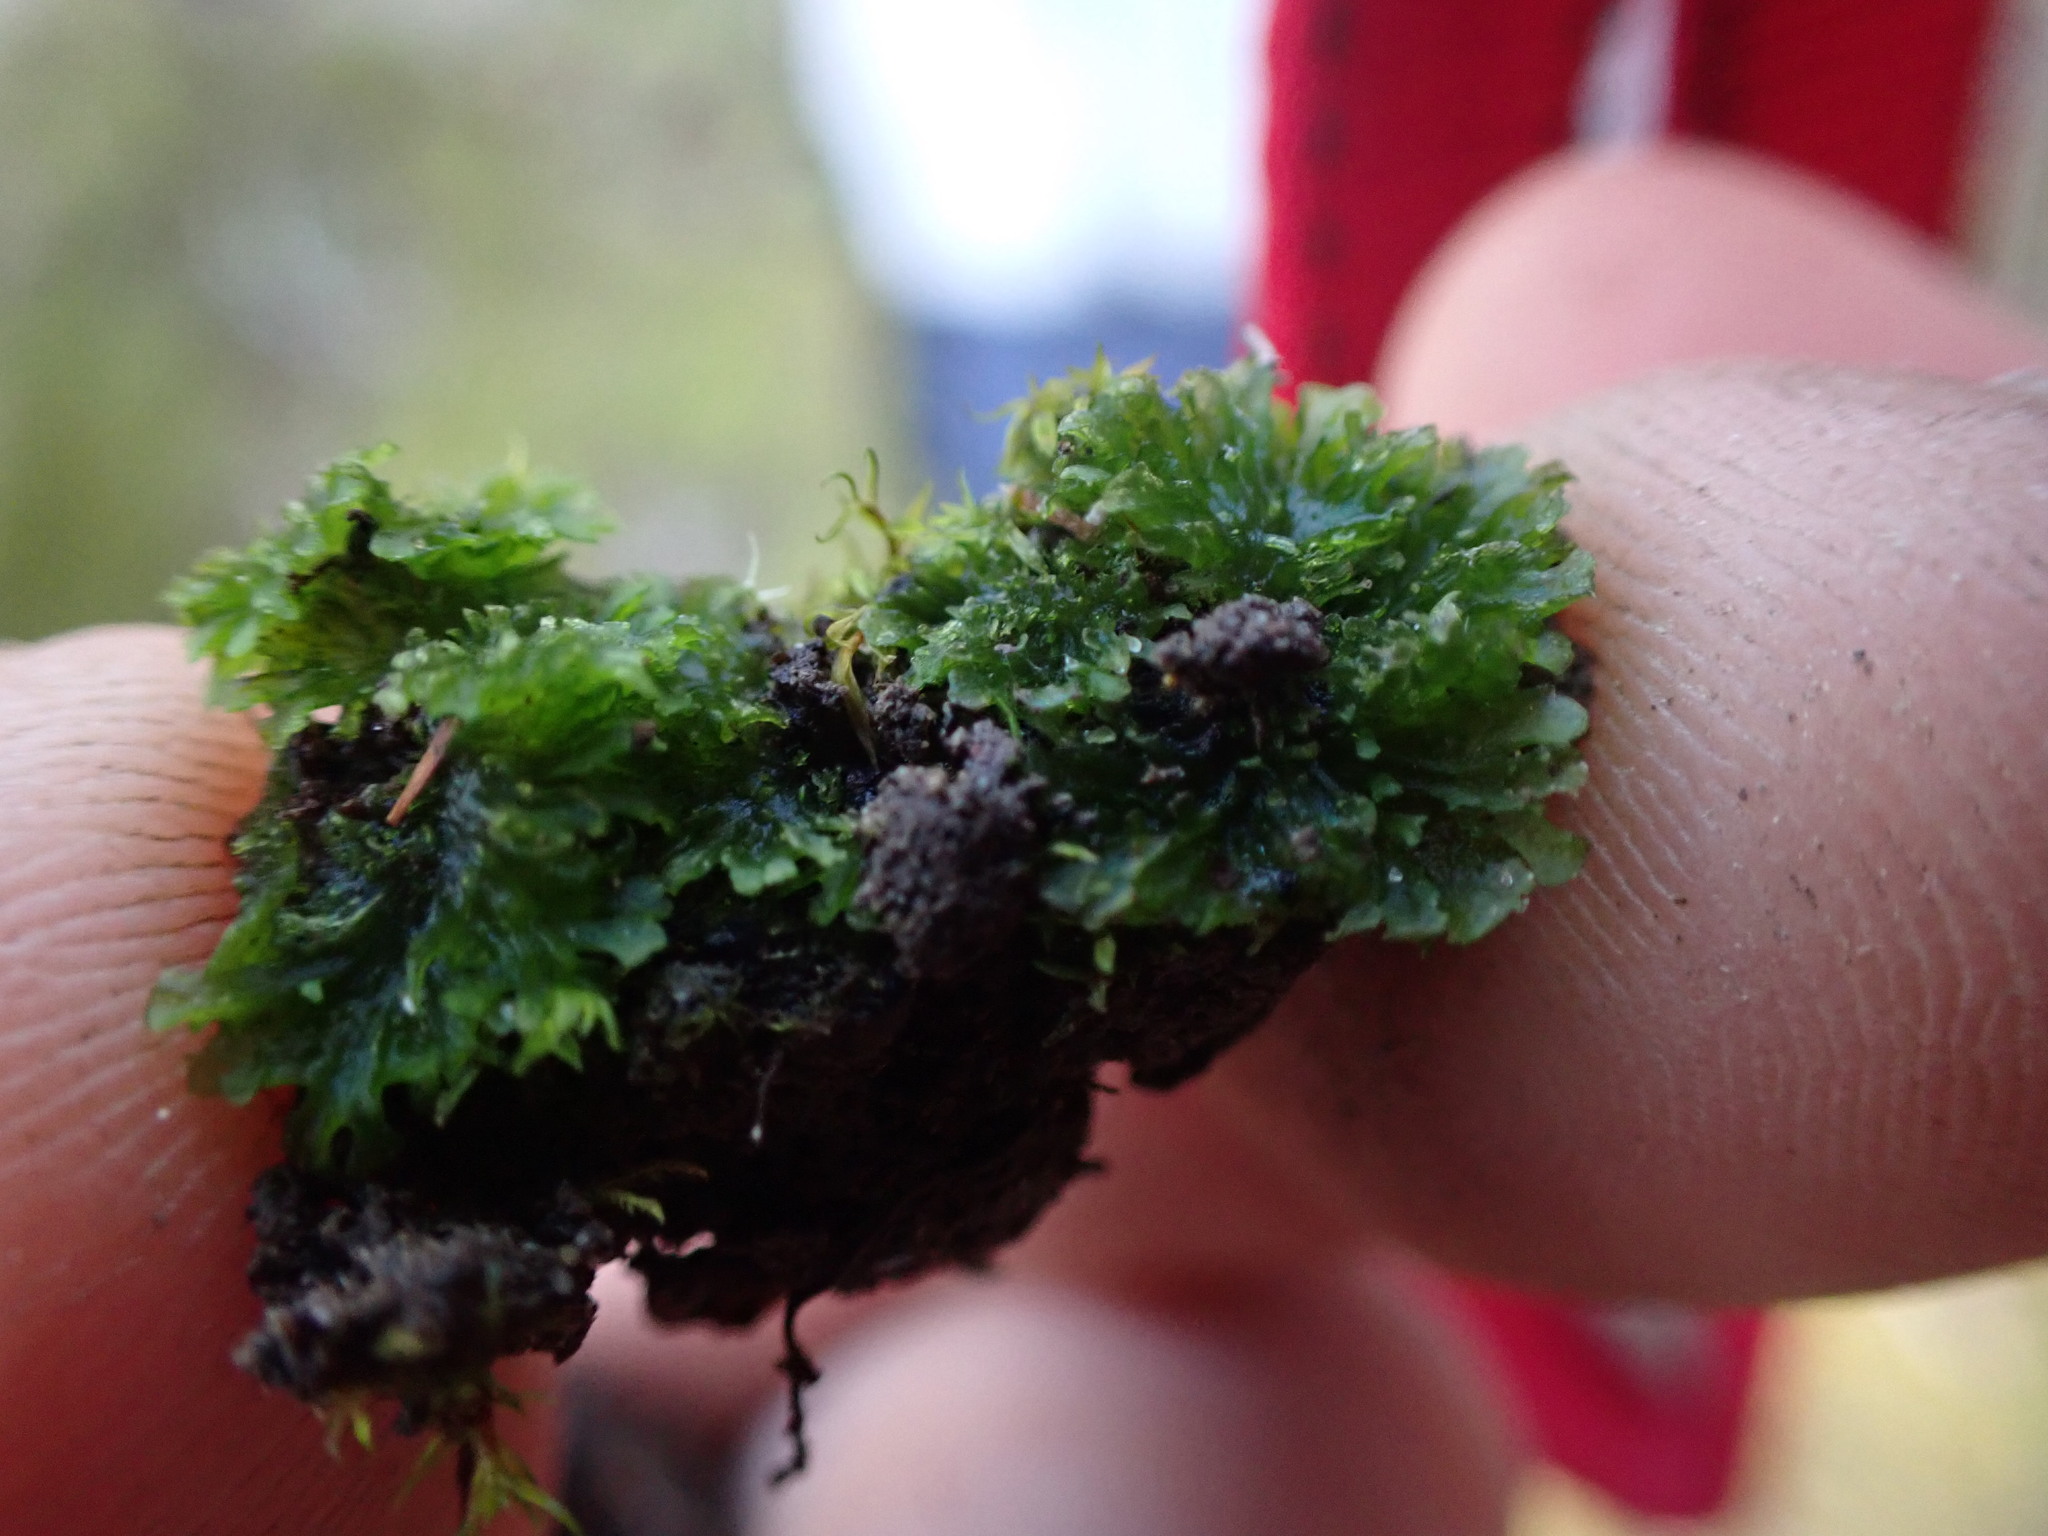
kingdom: Plantae
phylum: Anthocerotophyta
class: Anthocerotopsida
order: Anthocerotales
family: Anthocerotaceae
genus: Anthoceros
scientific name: Anthoceros fusiformis
